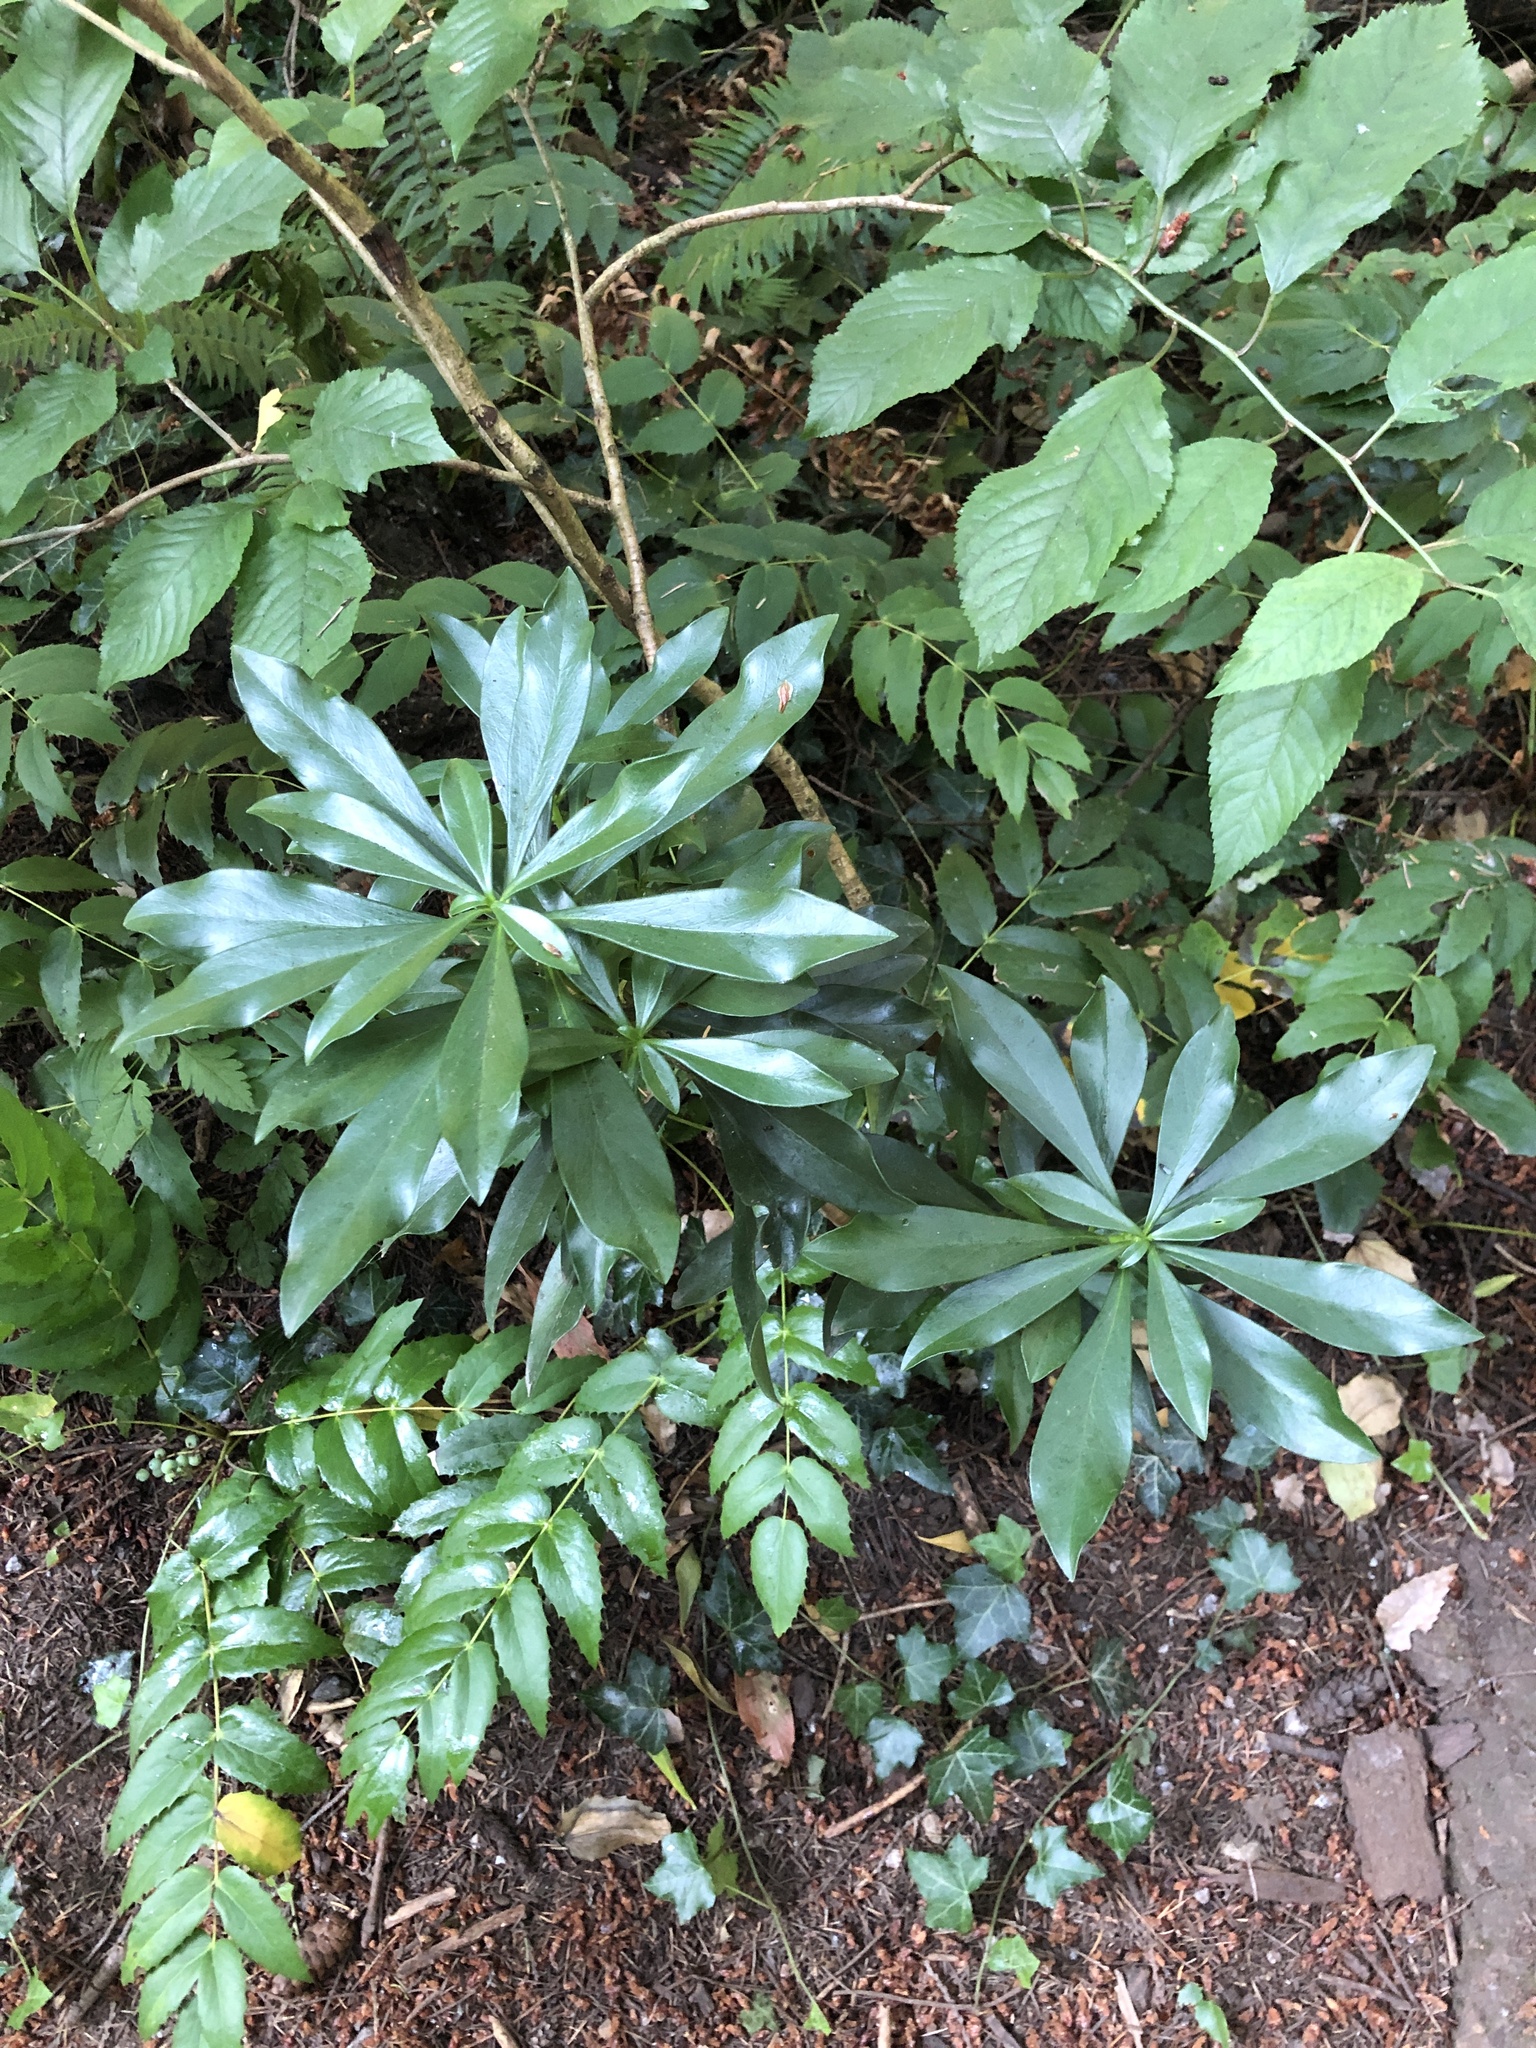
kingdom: Plantae
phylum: Tracheophyta
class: Magnoliopsida
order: Malvales
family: Thymelaeaceae
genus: Daphne
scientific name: Daphne laureola
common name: Spurge-laurel
